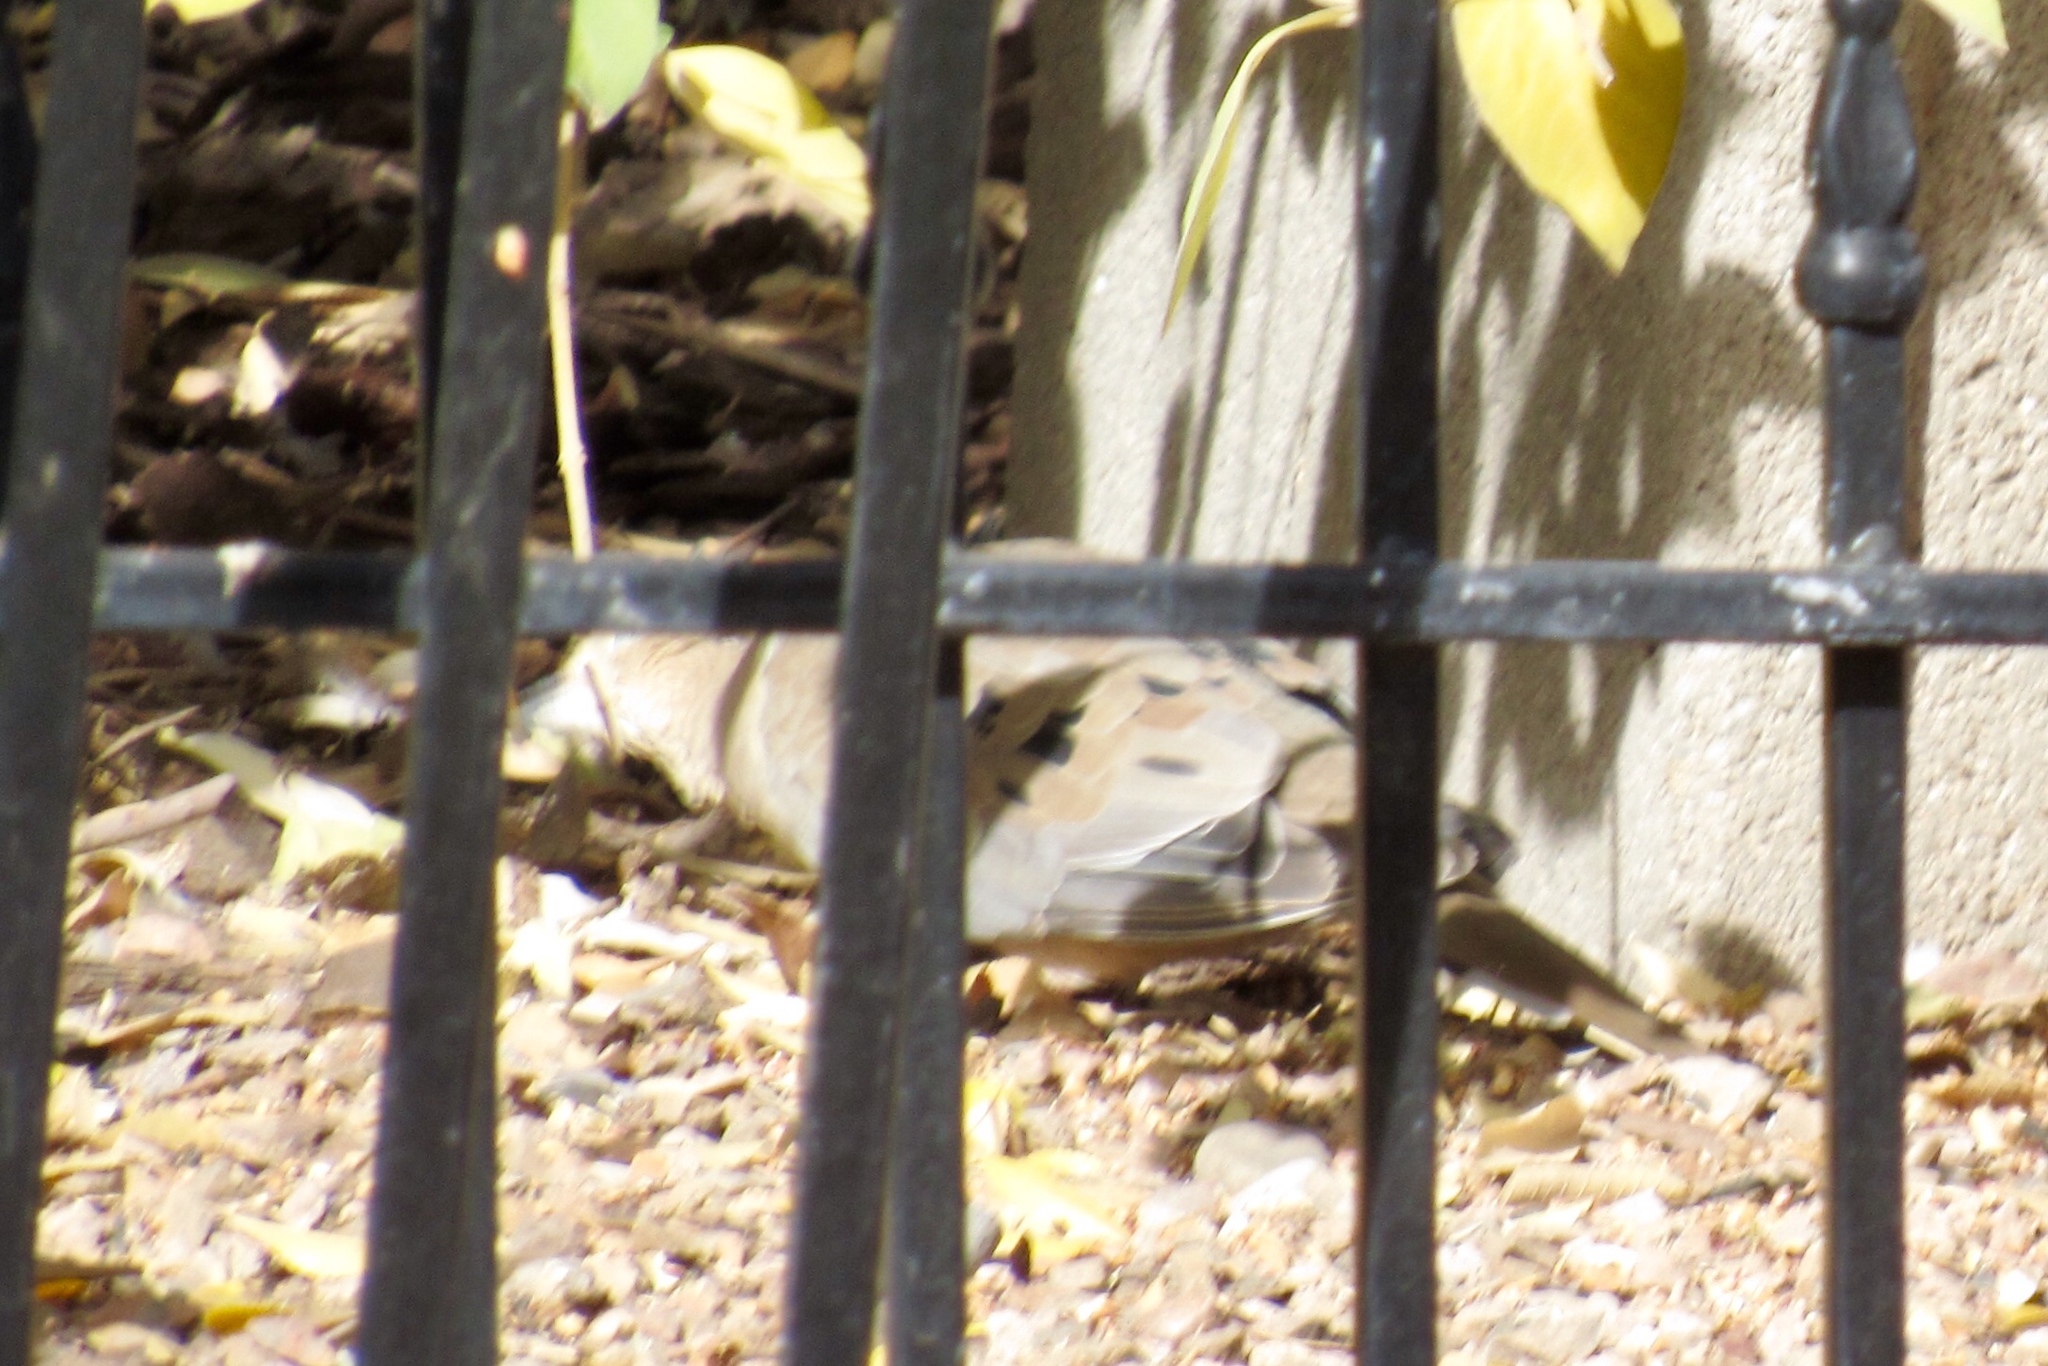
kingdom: Animalia
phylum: Chordata
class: Aves
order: Columbiformes
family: Columbidae
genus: Zenaida
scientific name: Zenaida macroura
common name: Mourning dove
